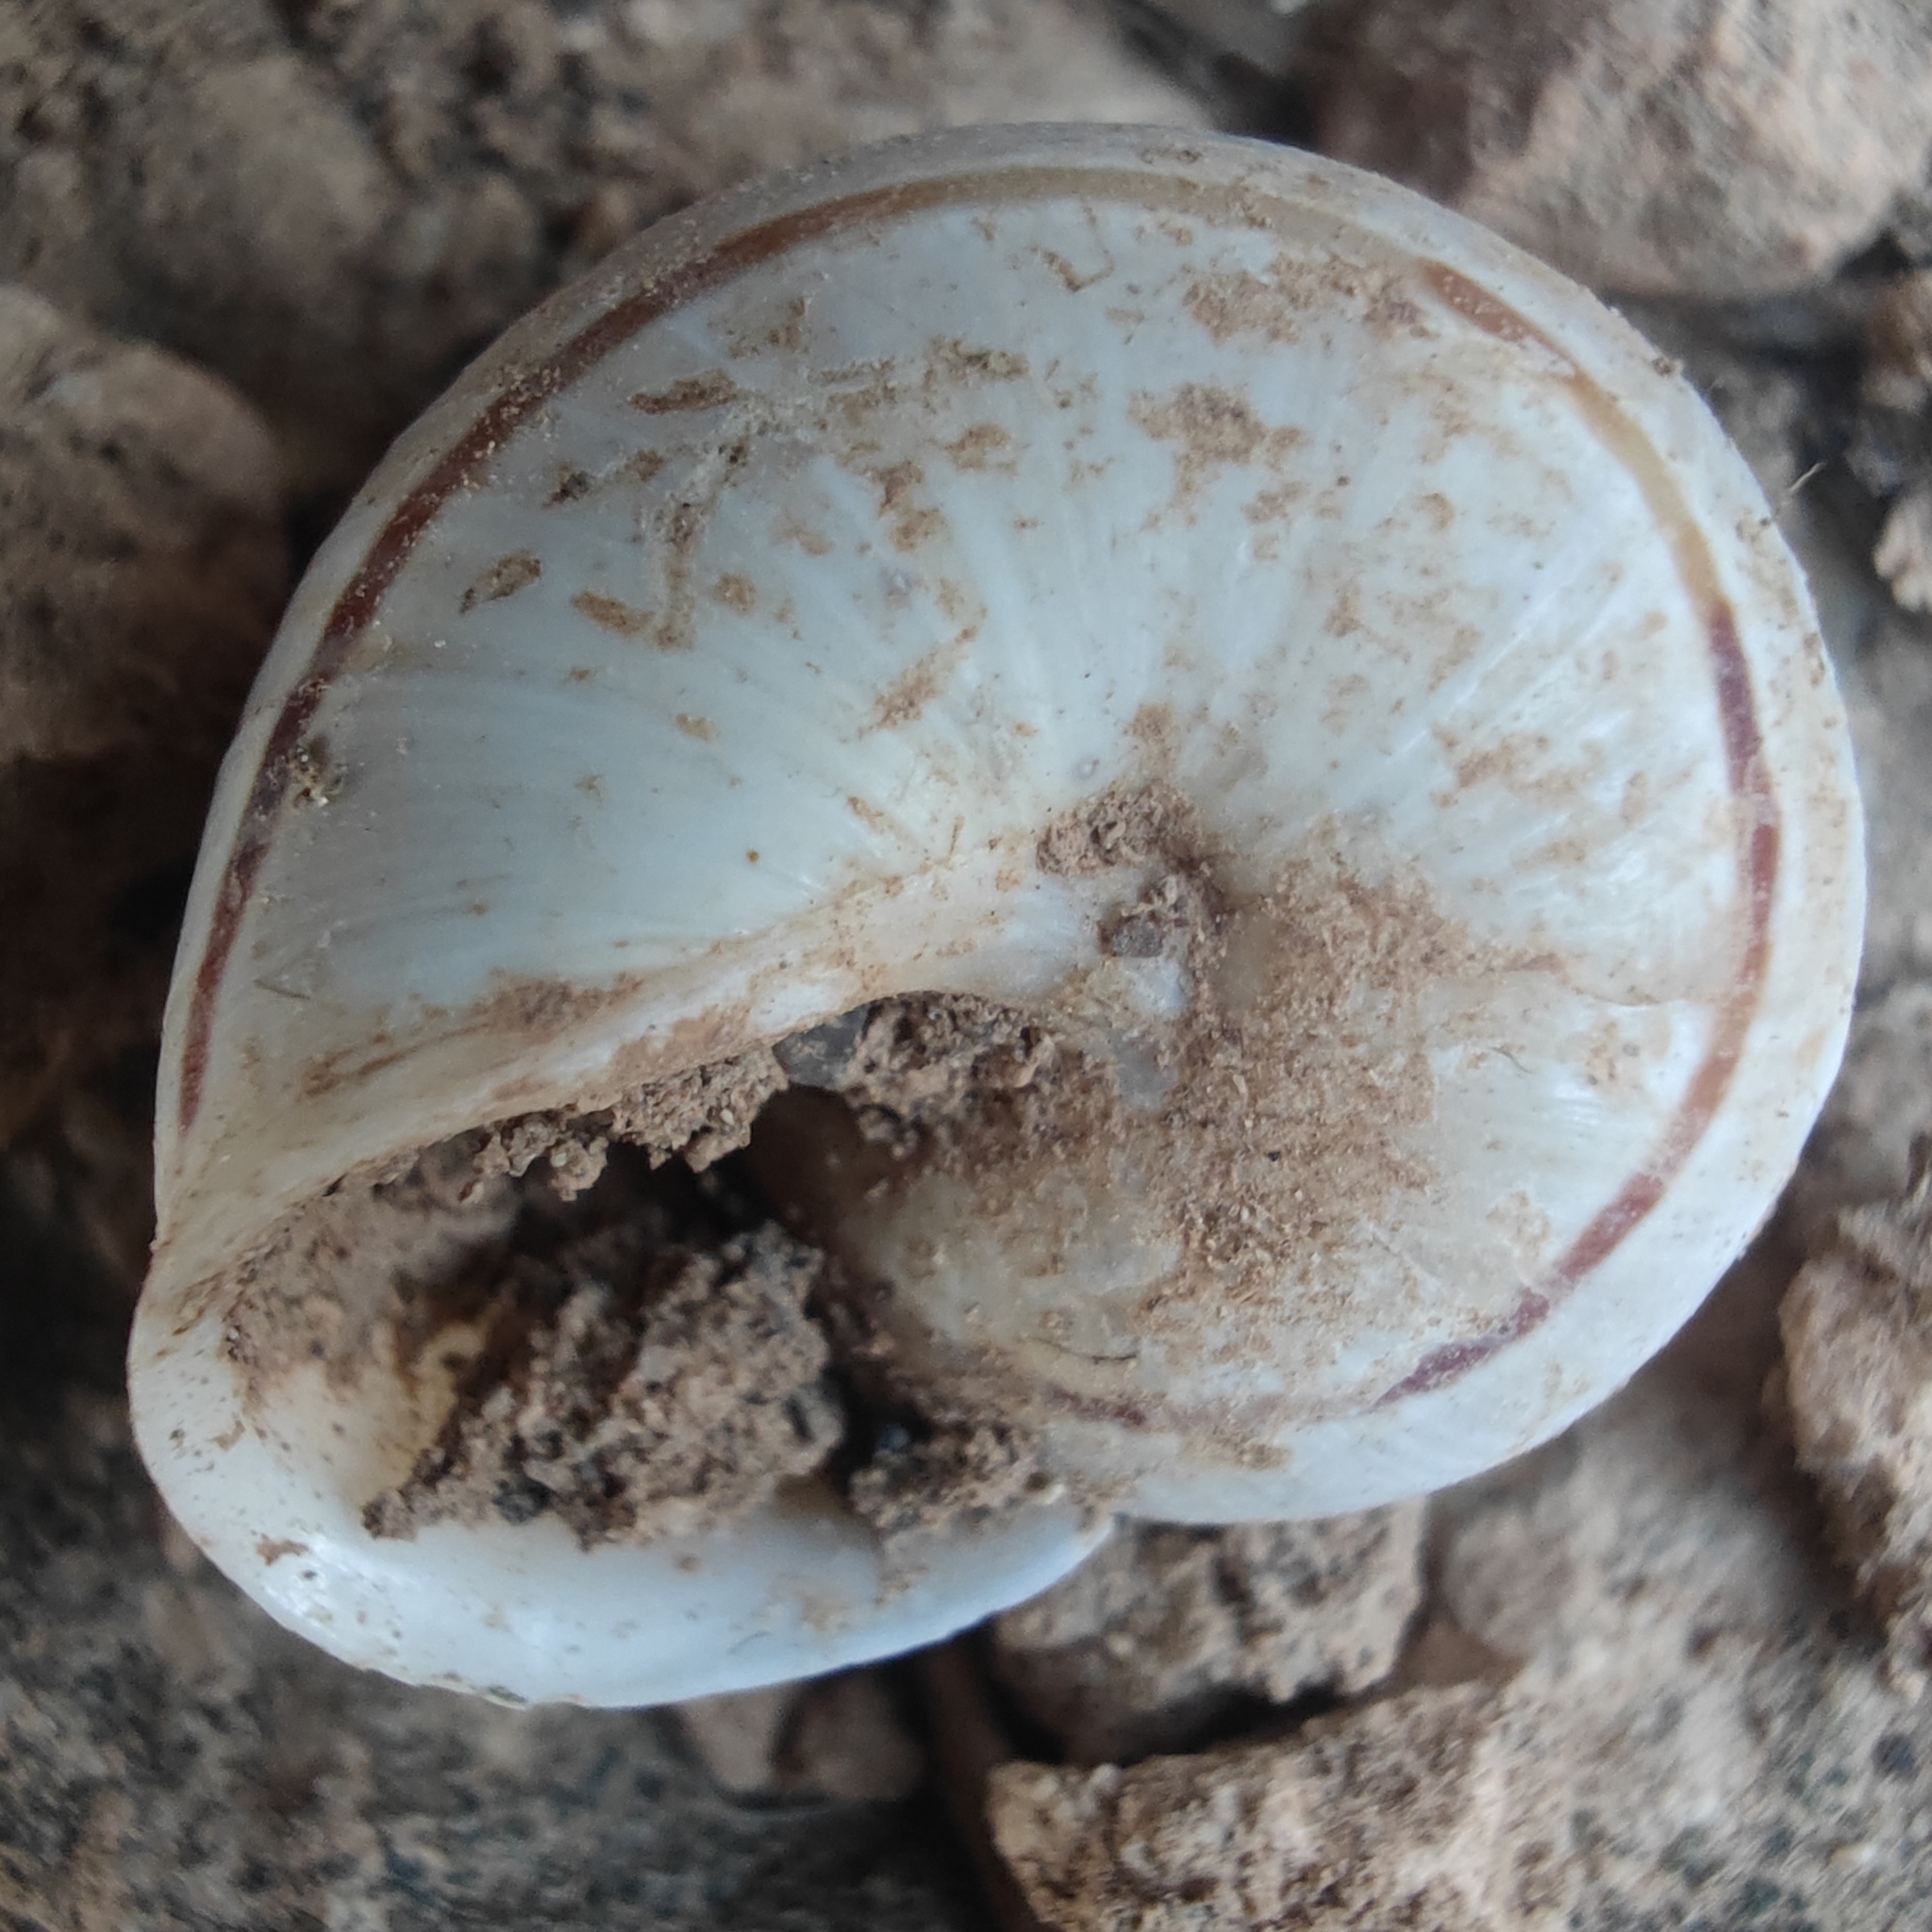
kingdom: Animalia
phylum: Mollusca
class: Gastropoda
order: Stylommatophora
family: Helicidae
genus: Pseudotachea
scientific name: Pseudotachea splendida
